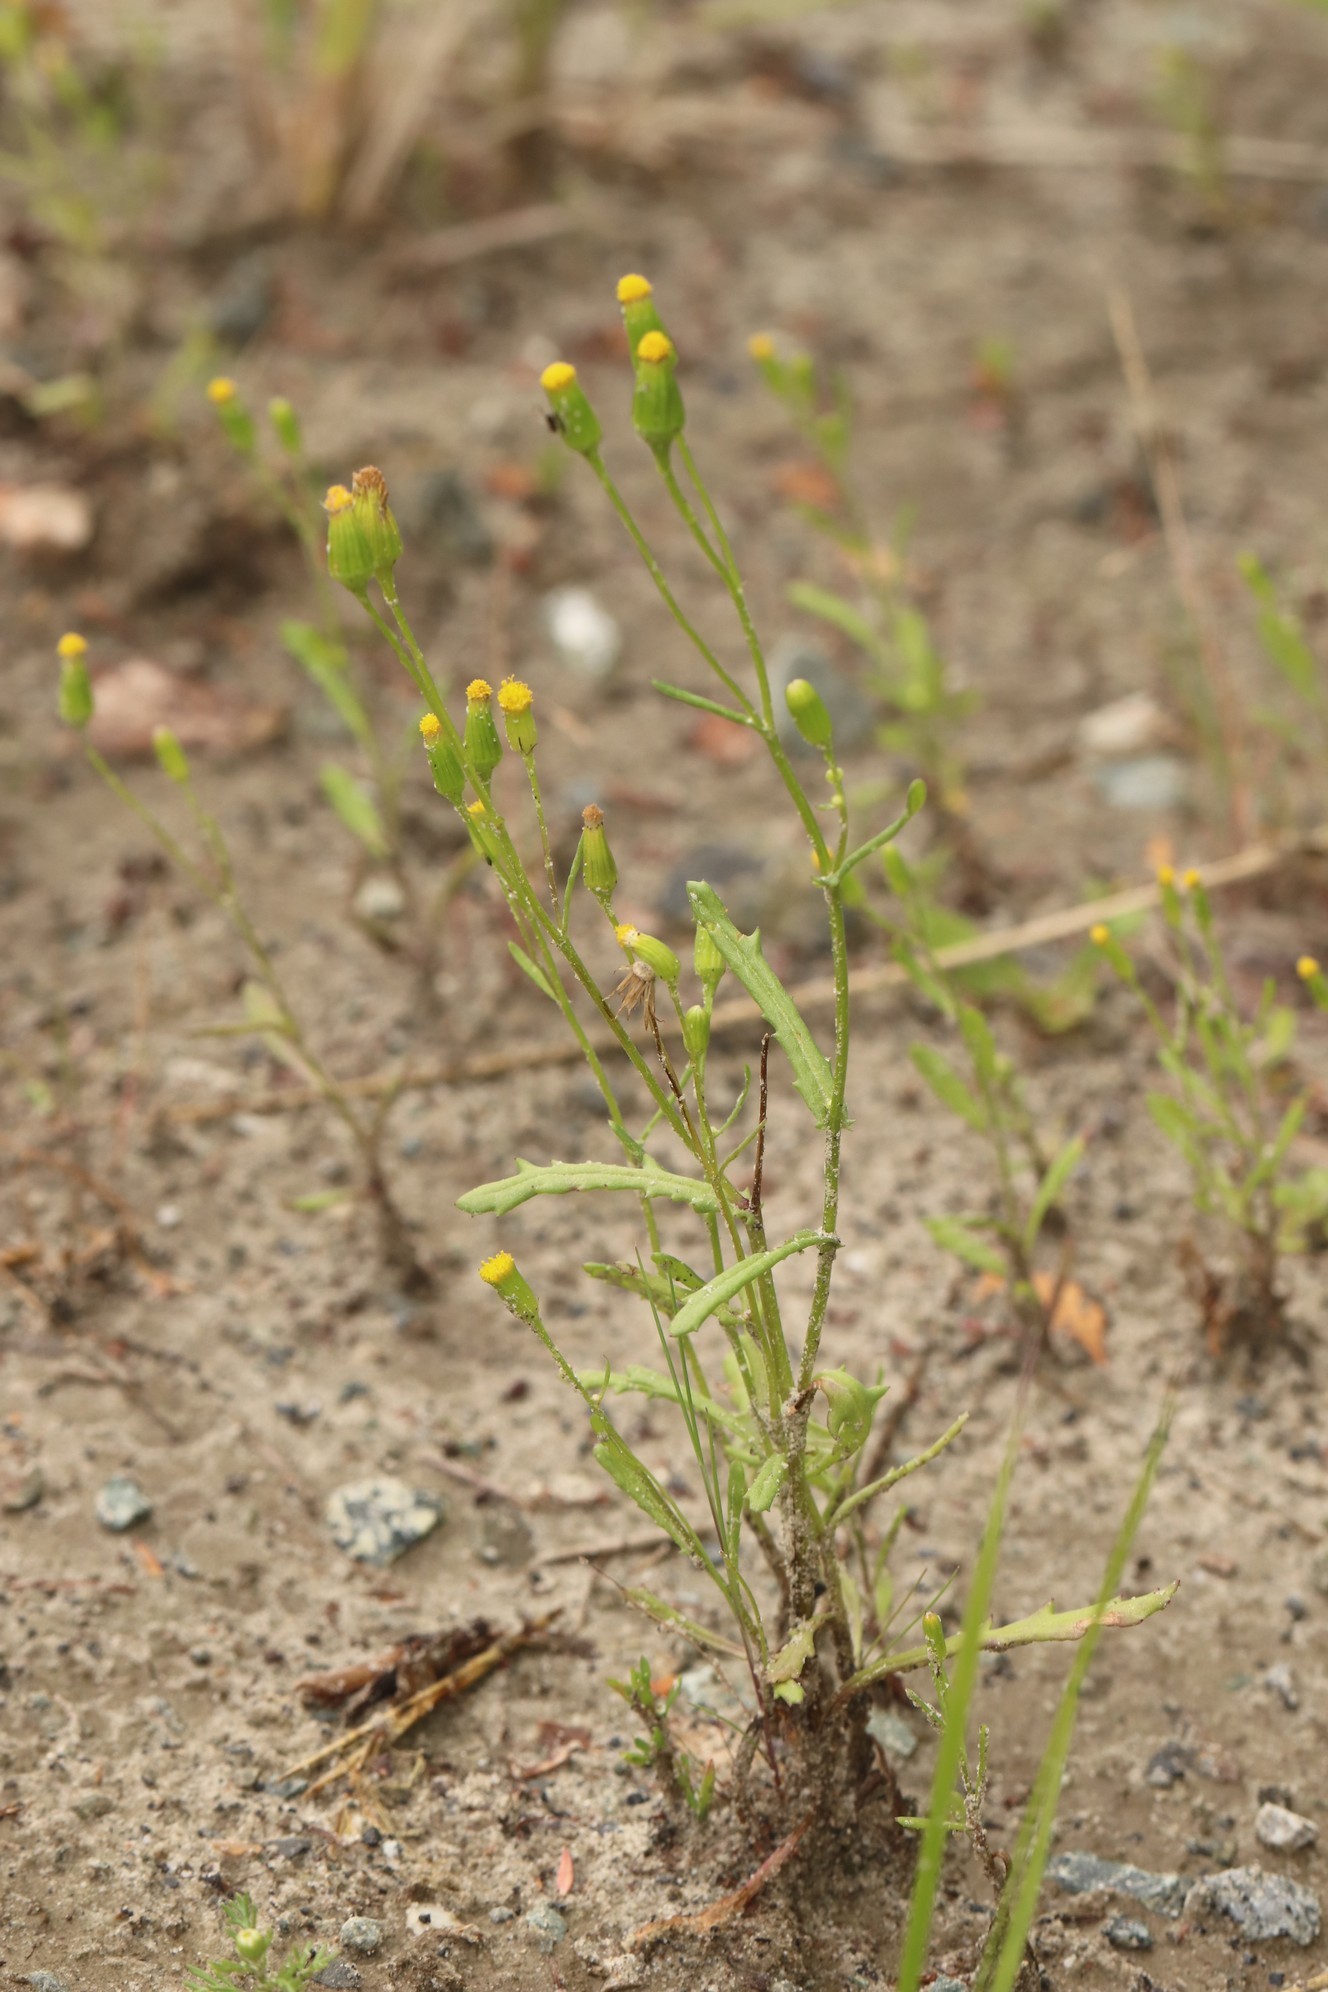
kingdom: Plantae
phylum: Tracheophyta
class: Magnoliopsida
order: Asterales
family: Asteraceae
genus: Senecio
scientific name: Senecio dubitabilis
